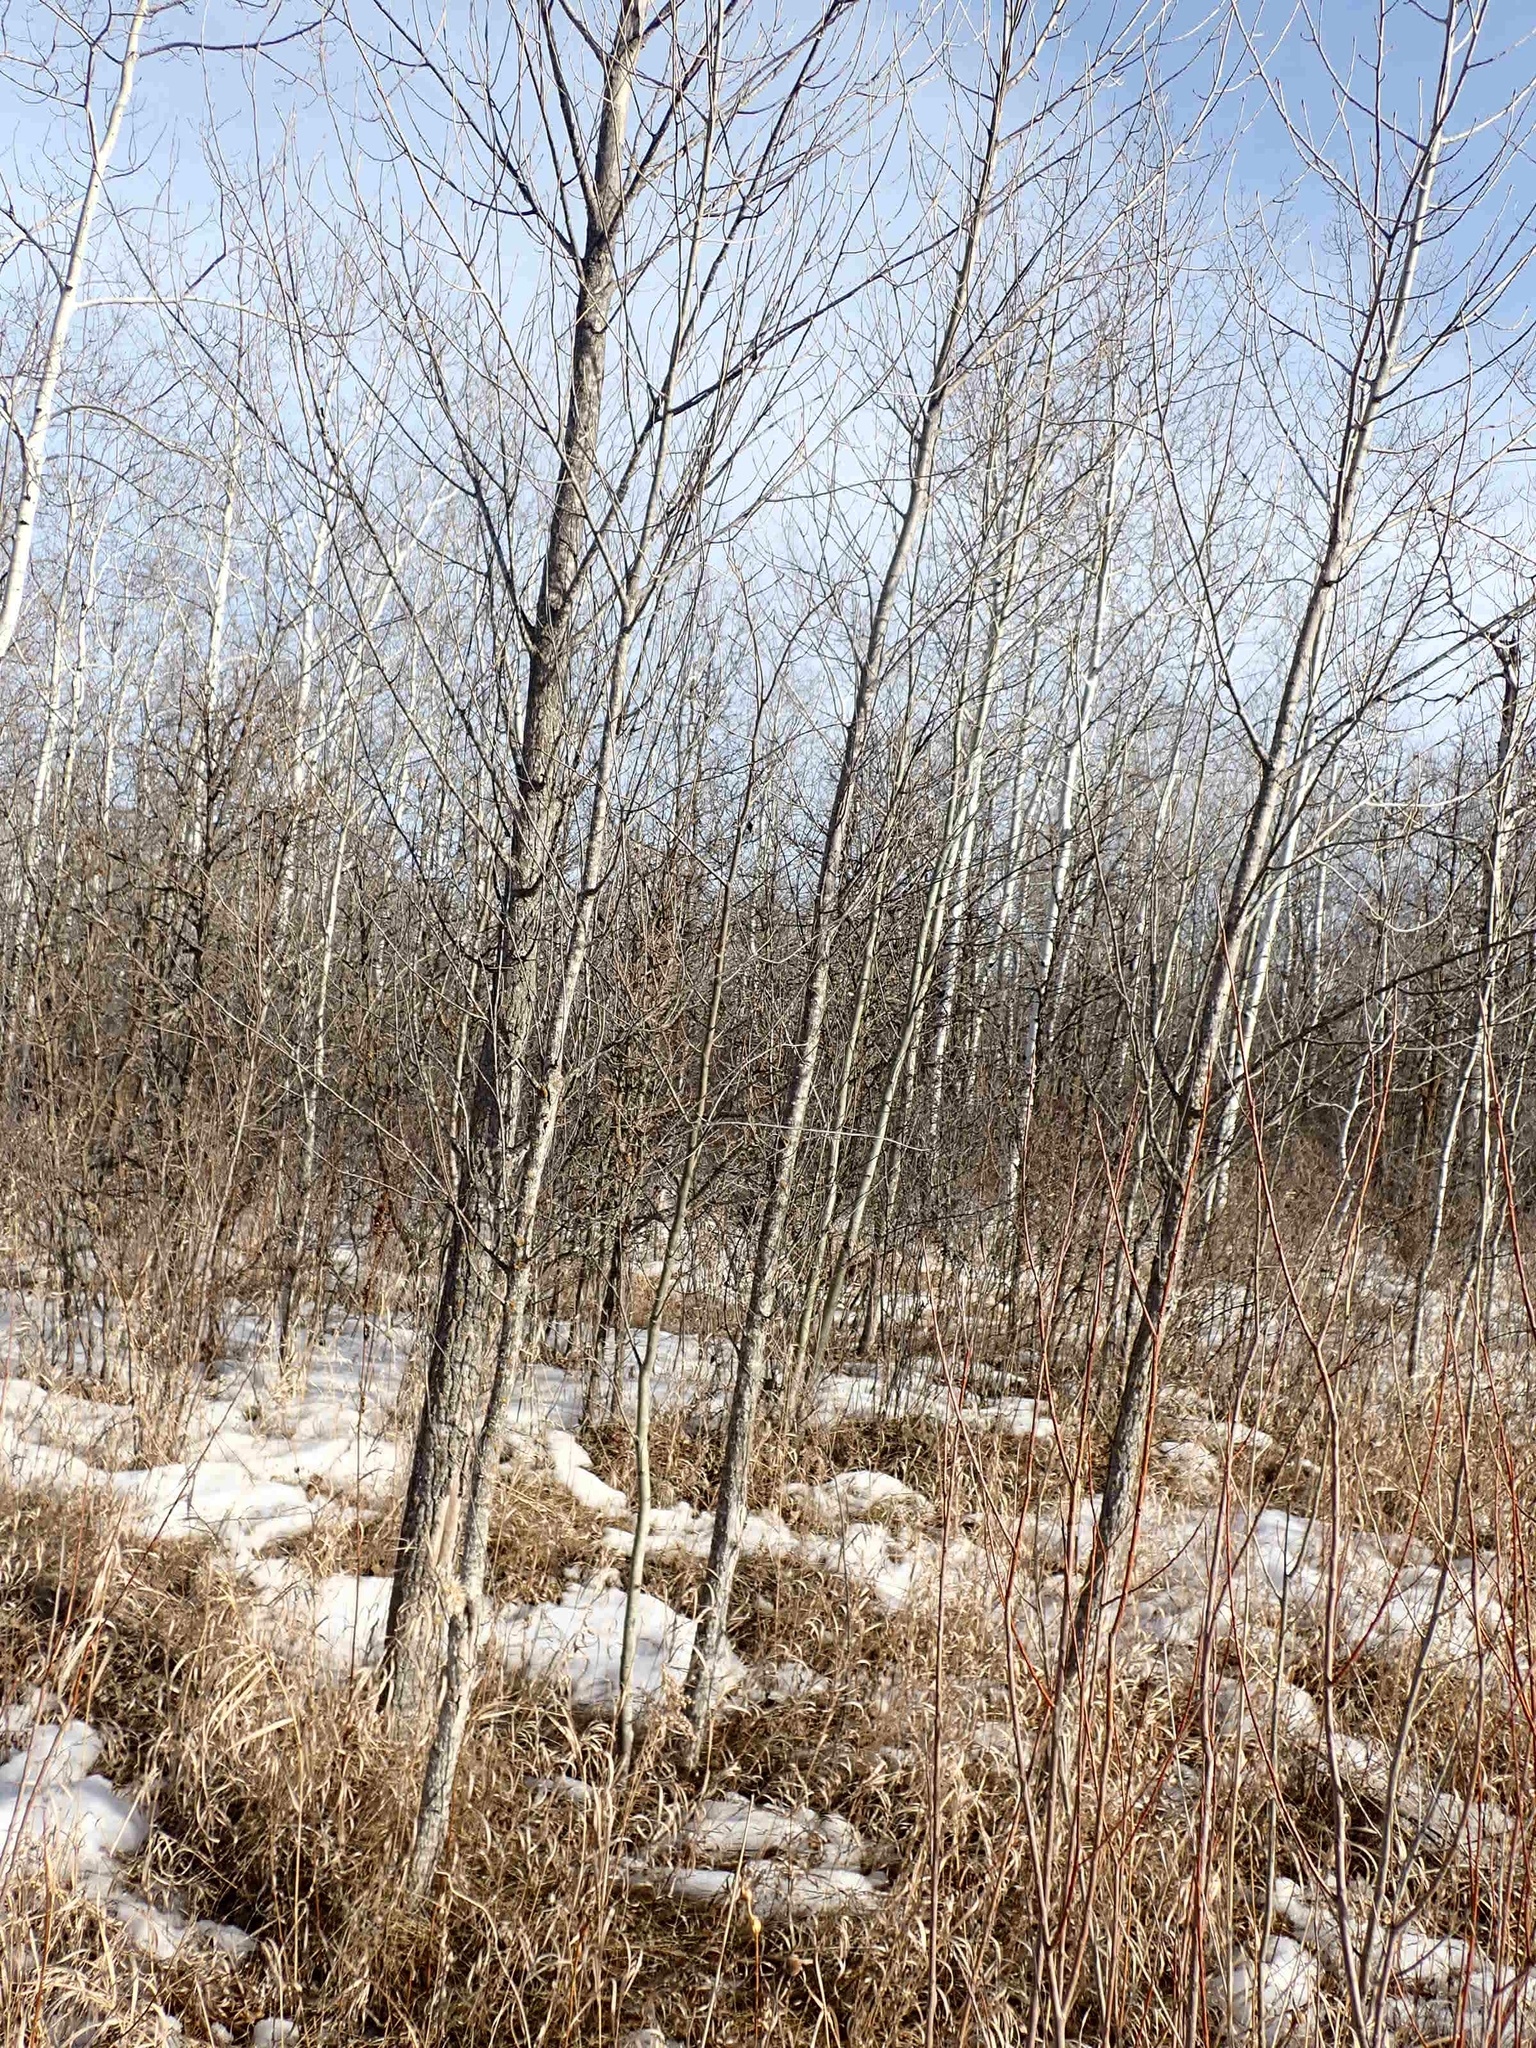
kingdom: Plantae
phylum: Tracheophyta
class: Magnoliopsida
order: Malpighiales
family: Salicaceae
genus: Populus
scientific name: Populus balsamifera
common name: Balsam poplar
